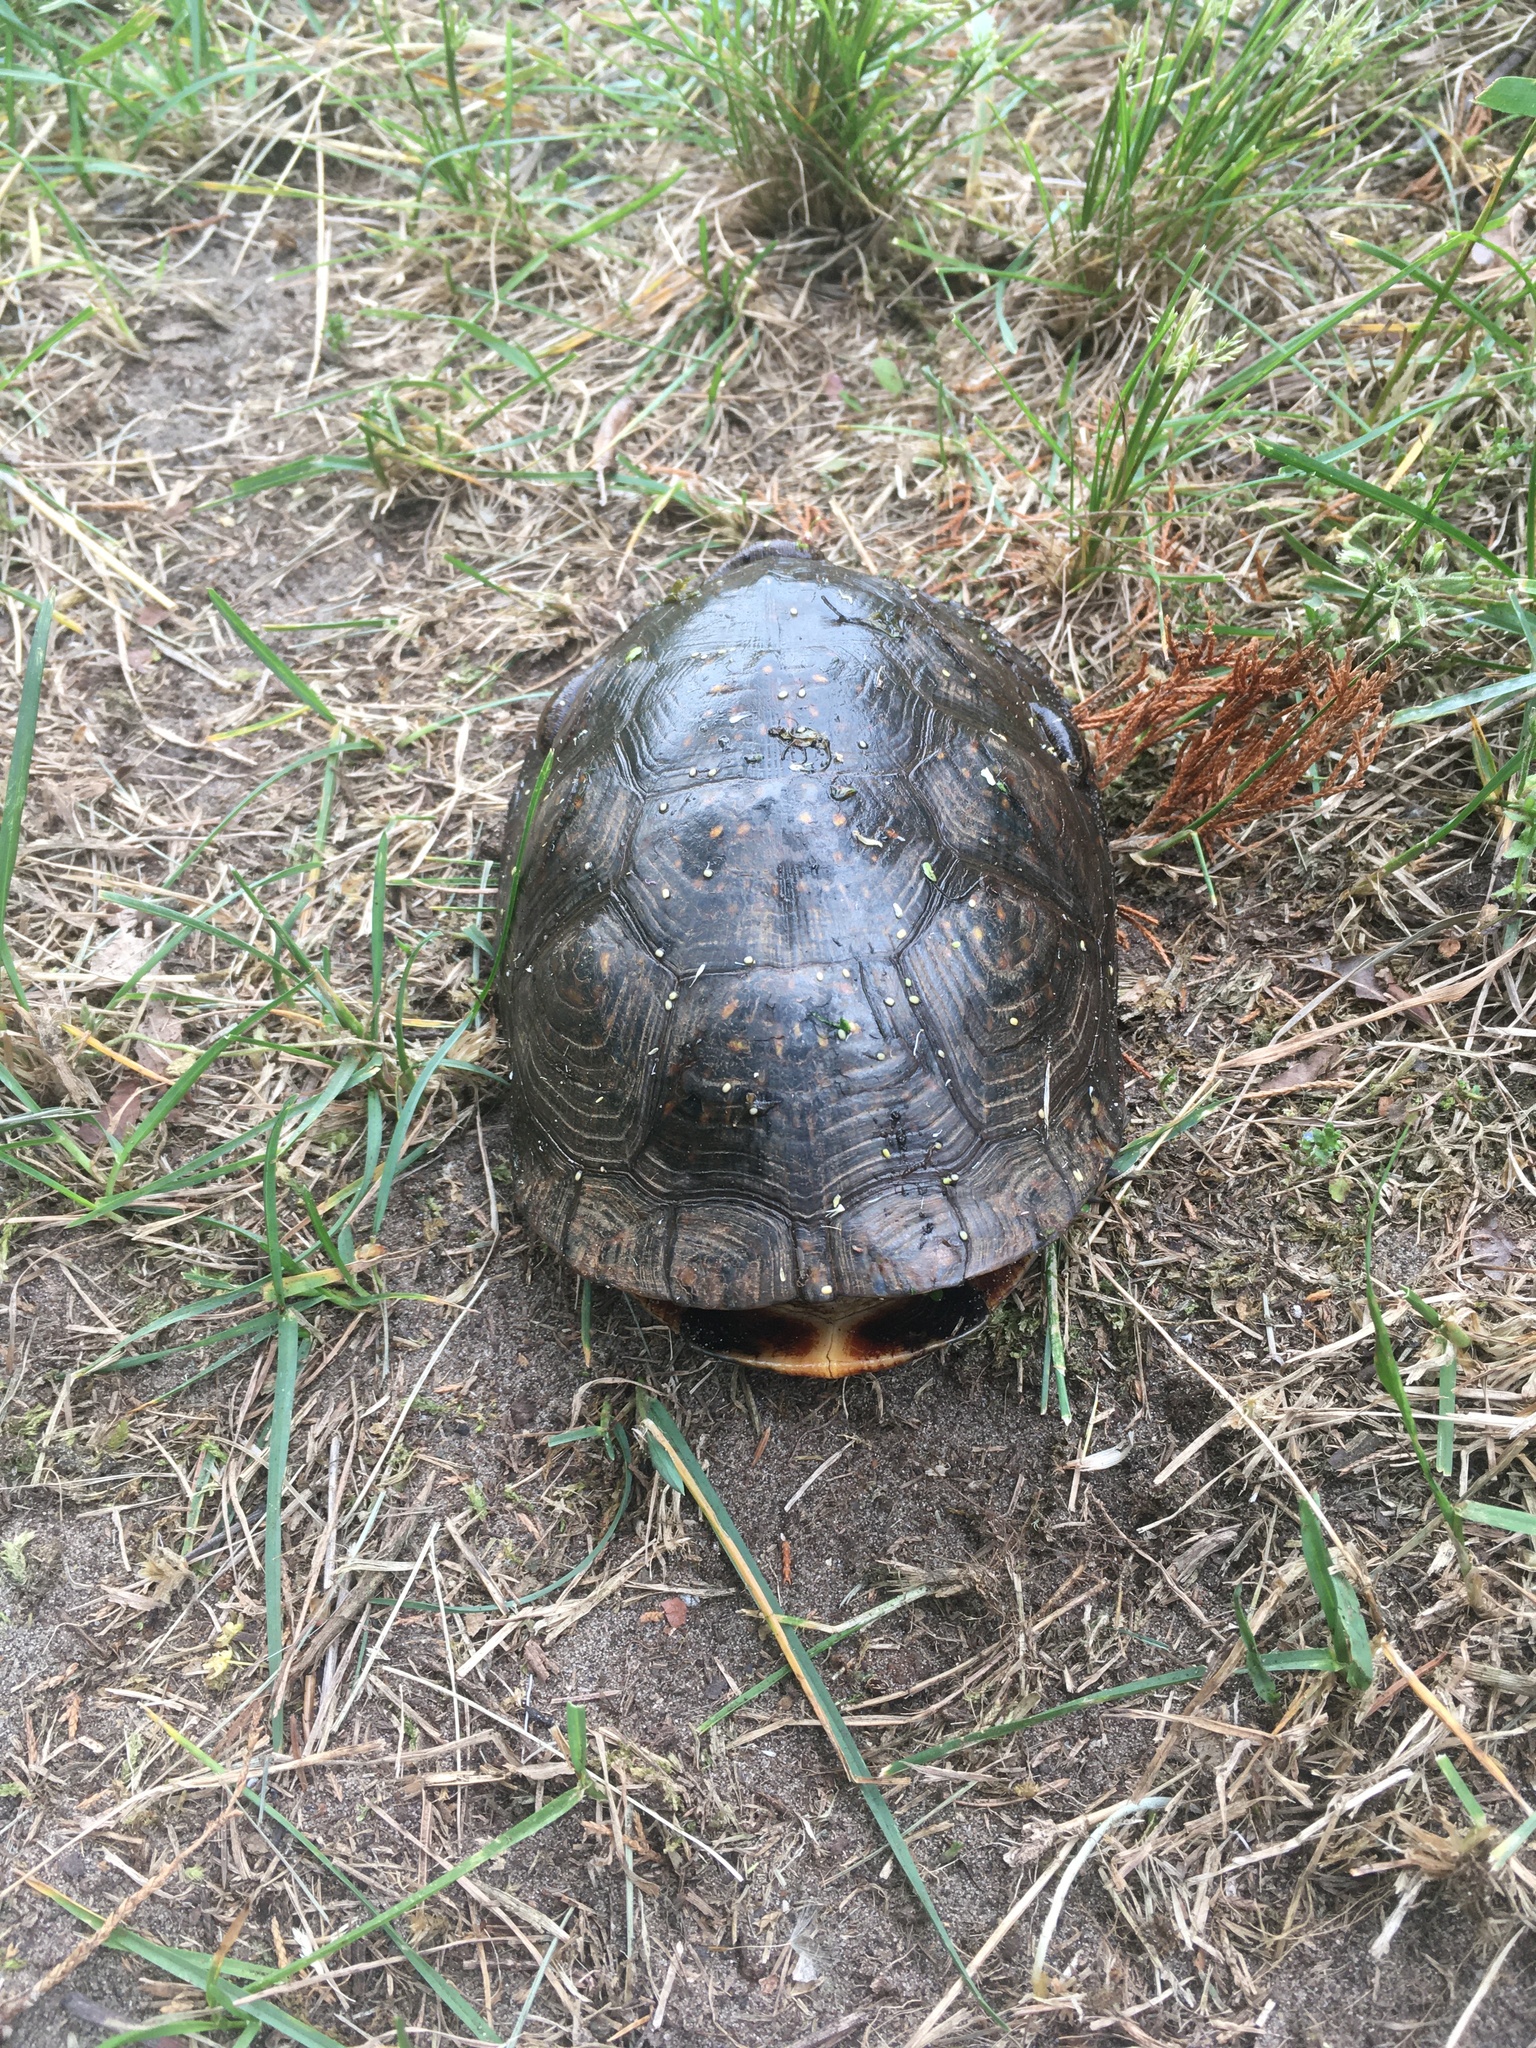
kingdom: Animalia
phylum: Chordata
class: Testudines
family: Emydidae
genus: Emys
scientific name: Emys blandingii
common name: Blanding's turtle
